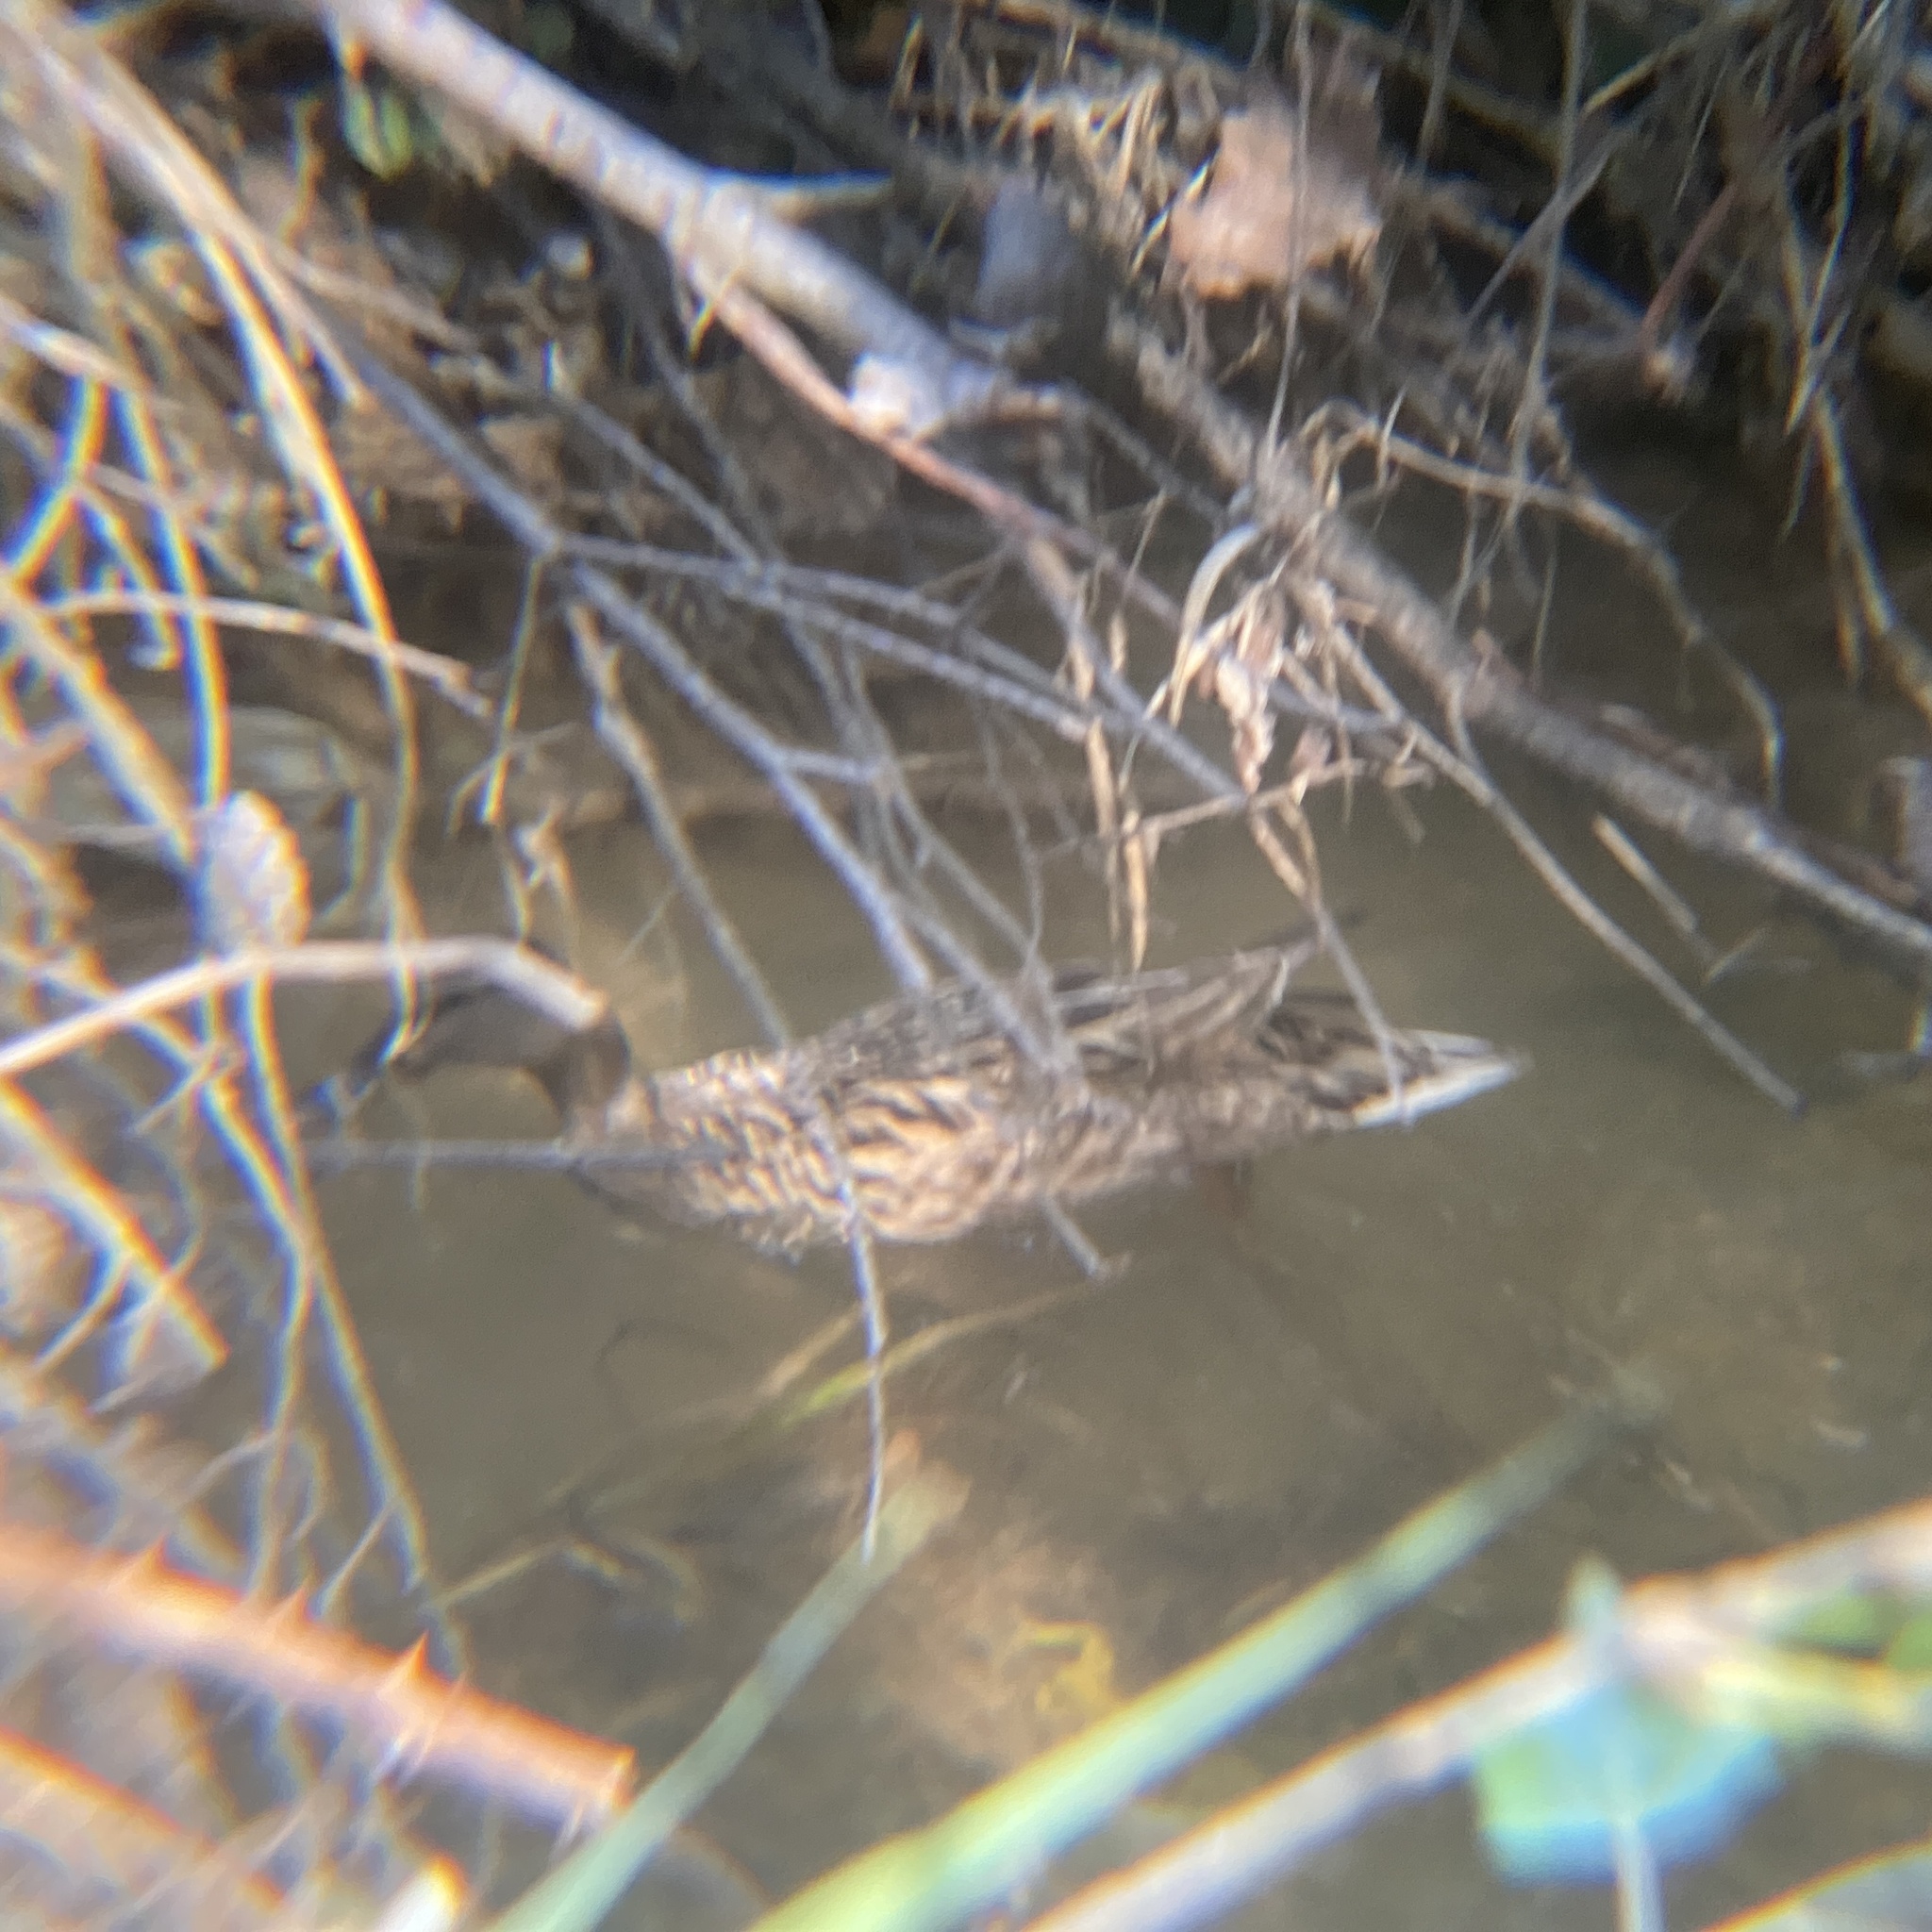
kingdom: Animalia
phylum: Chordata
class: Aves
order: Anseriformes
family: Anatidae
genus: Anas
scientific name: Anas platyrhynchos
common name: Mallard
